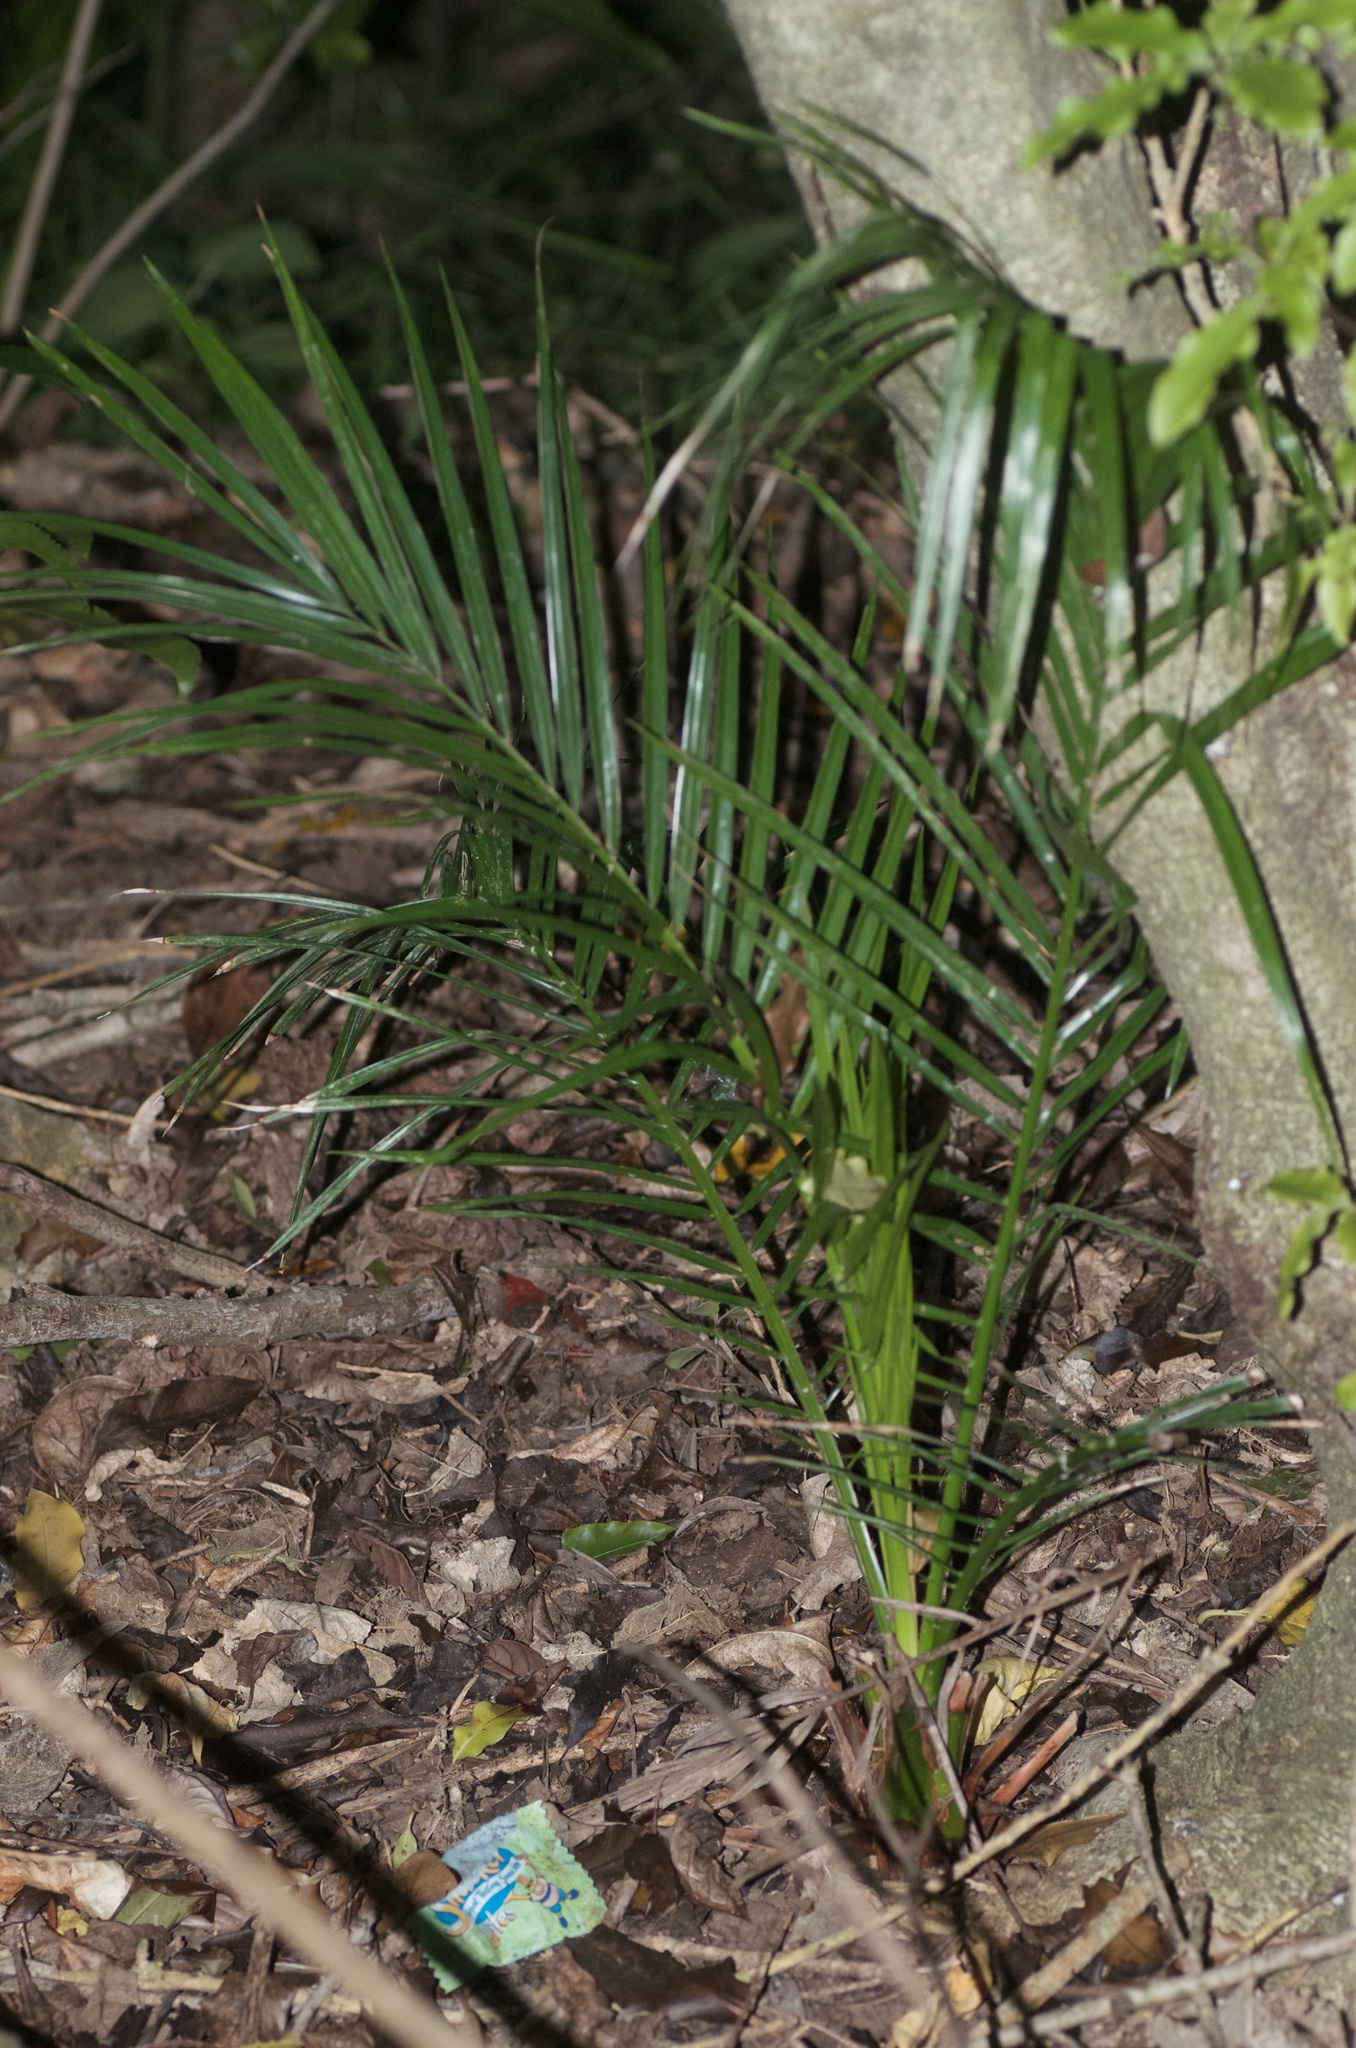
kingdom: Plantae
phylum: Tracheophyta
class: Liliopsida
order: Arecales
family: Arecaceae
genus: Phoenix
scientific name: Phoenix canariensis
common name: Canary island date palm
